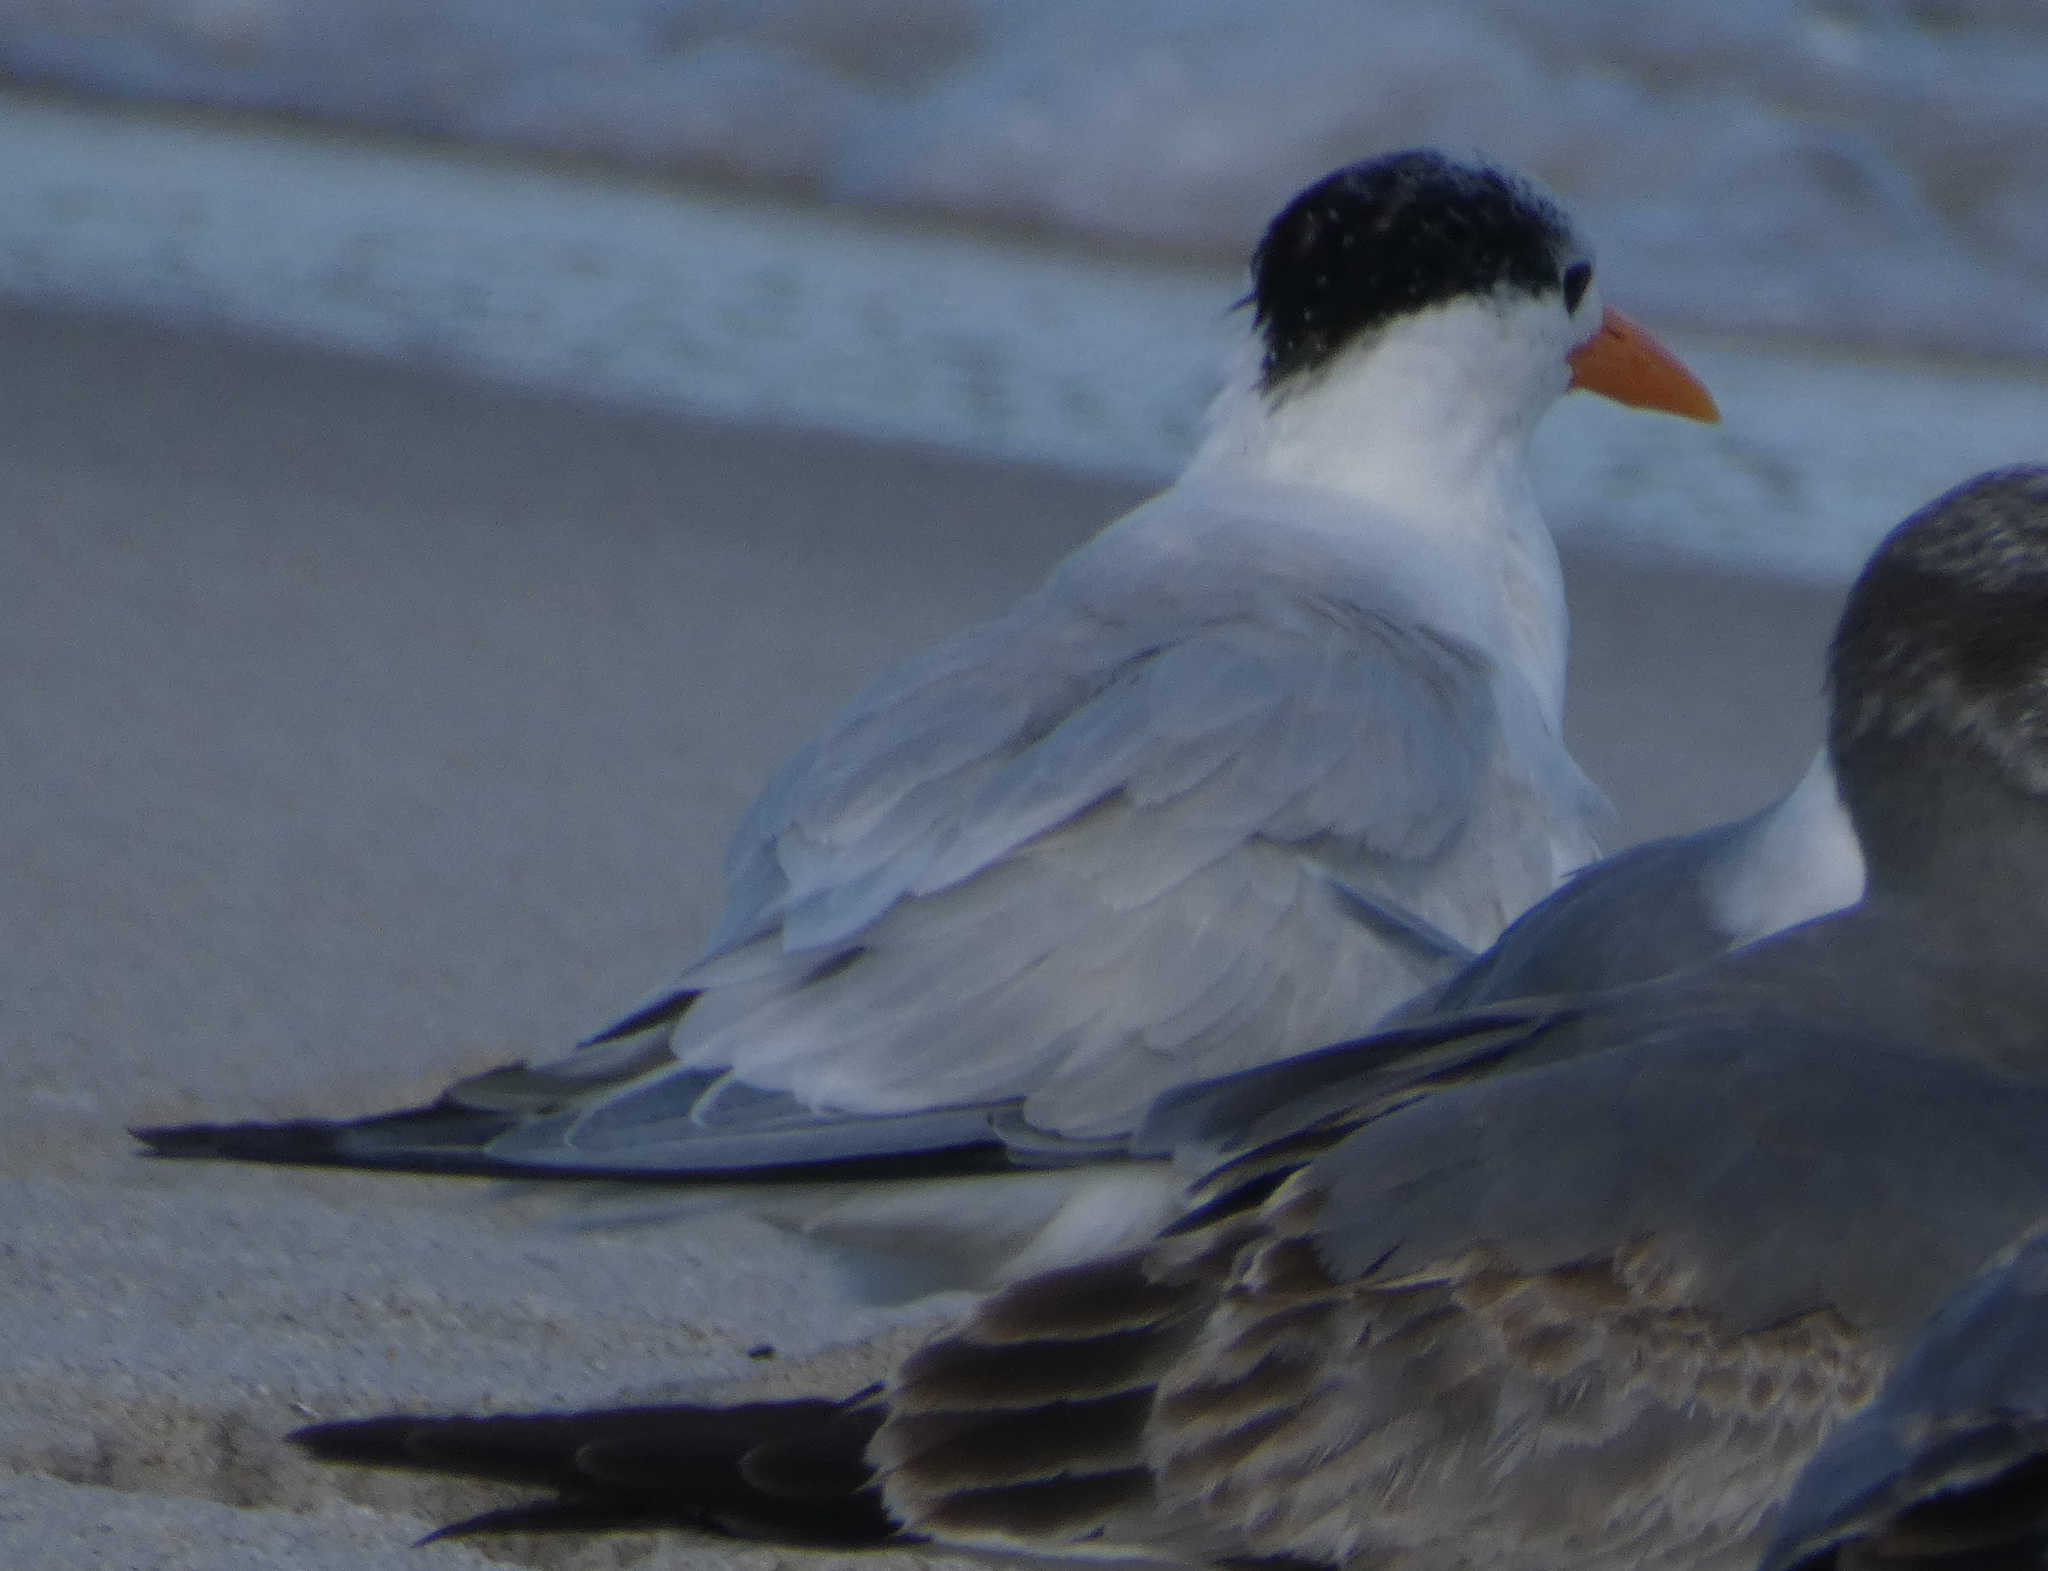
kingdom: Animalia
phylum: Chordata
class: Aves
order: Charadriiformes
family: Laridae
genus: Thalasseus
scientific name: Thalasseus maximus
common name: Royal tern
